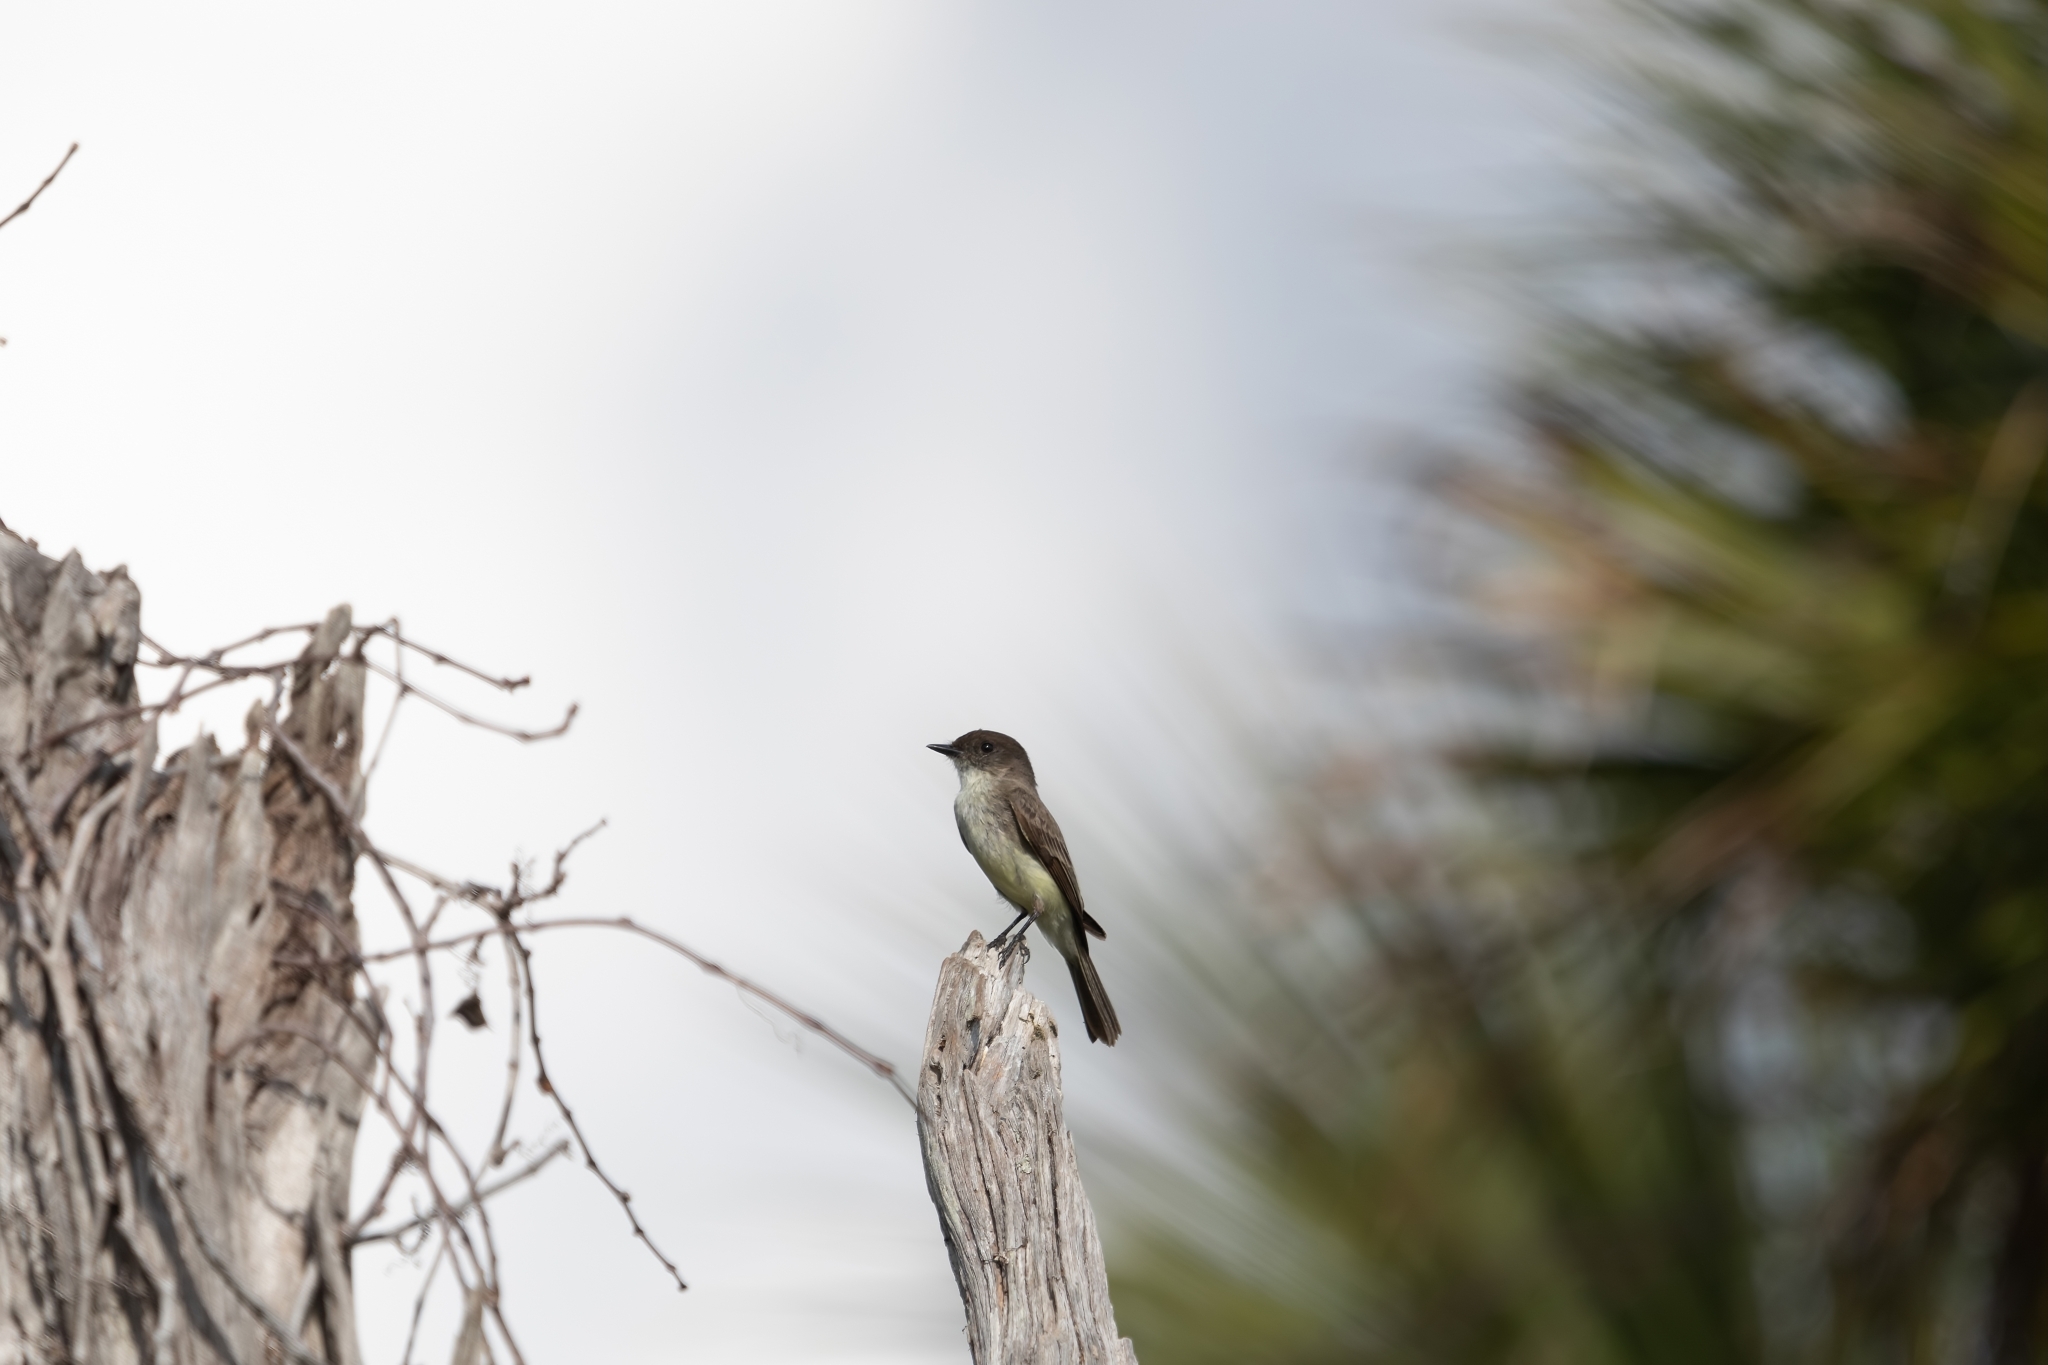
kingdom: Animalia
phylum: Chordata
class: Aves
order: Passeriformes
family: Tyrannidae
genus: Sayornis
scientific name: Sayornis phoebe
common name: Eastern phoebe
